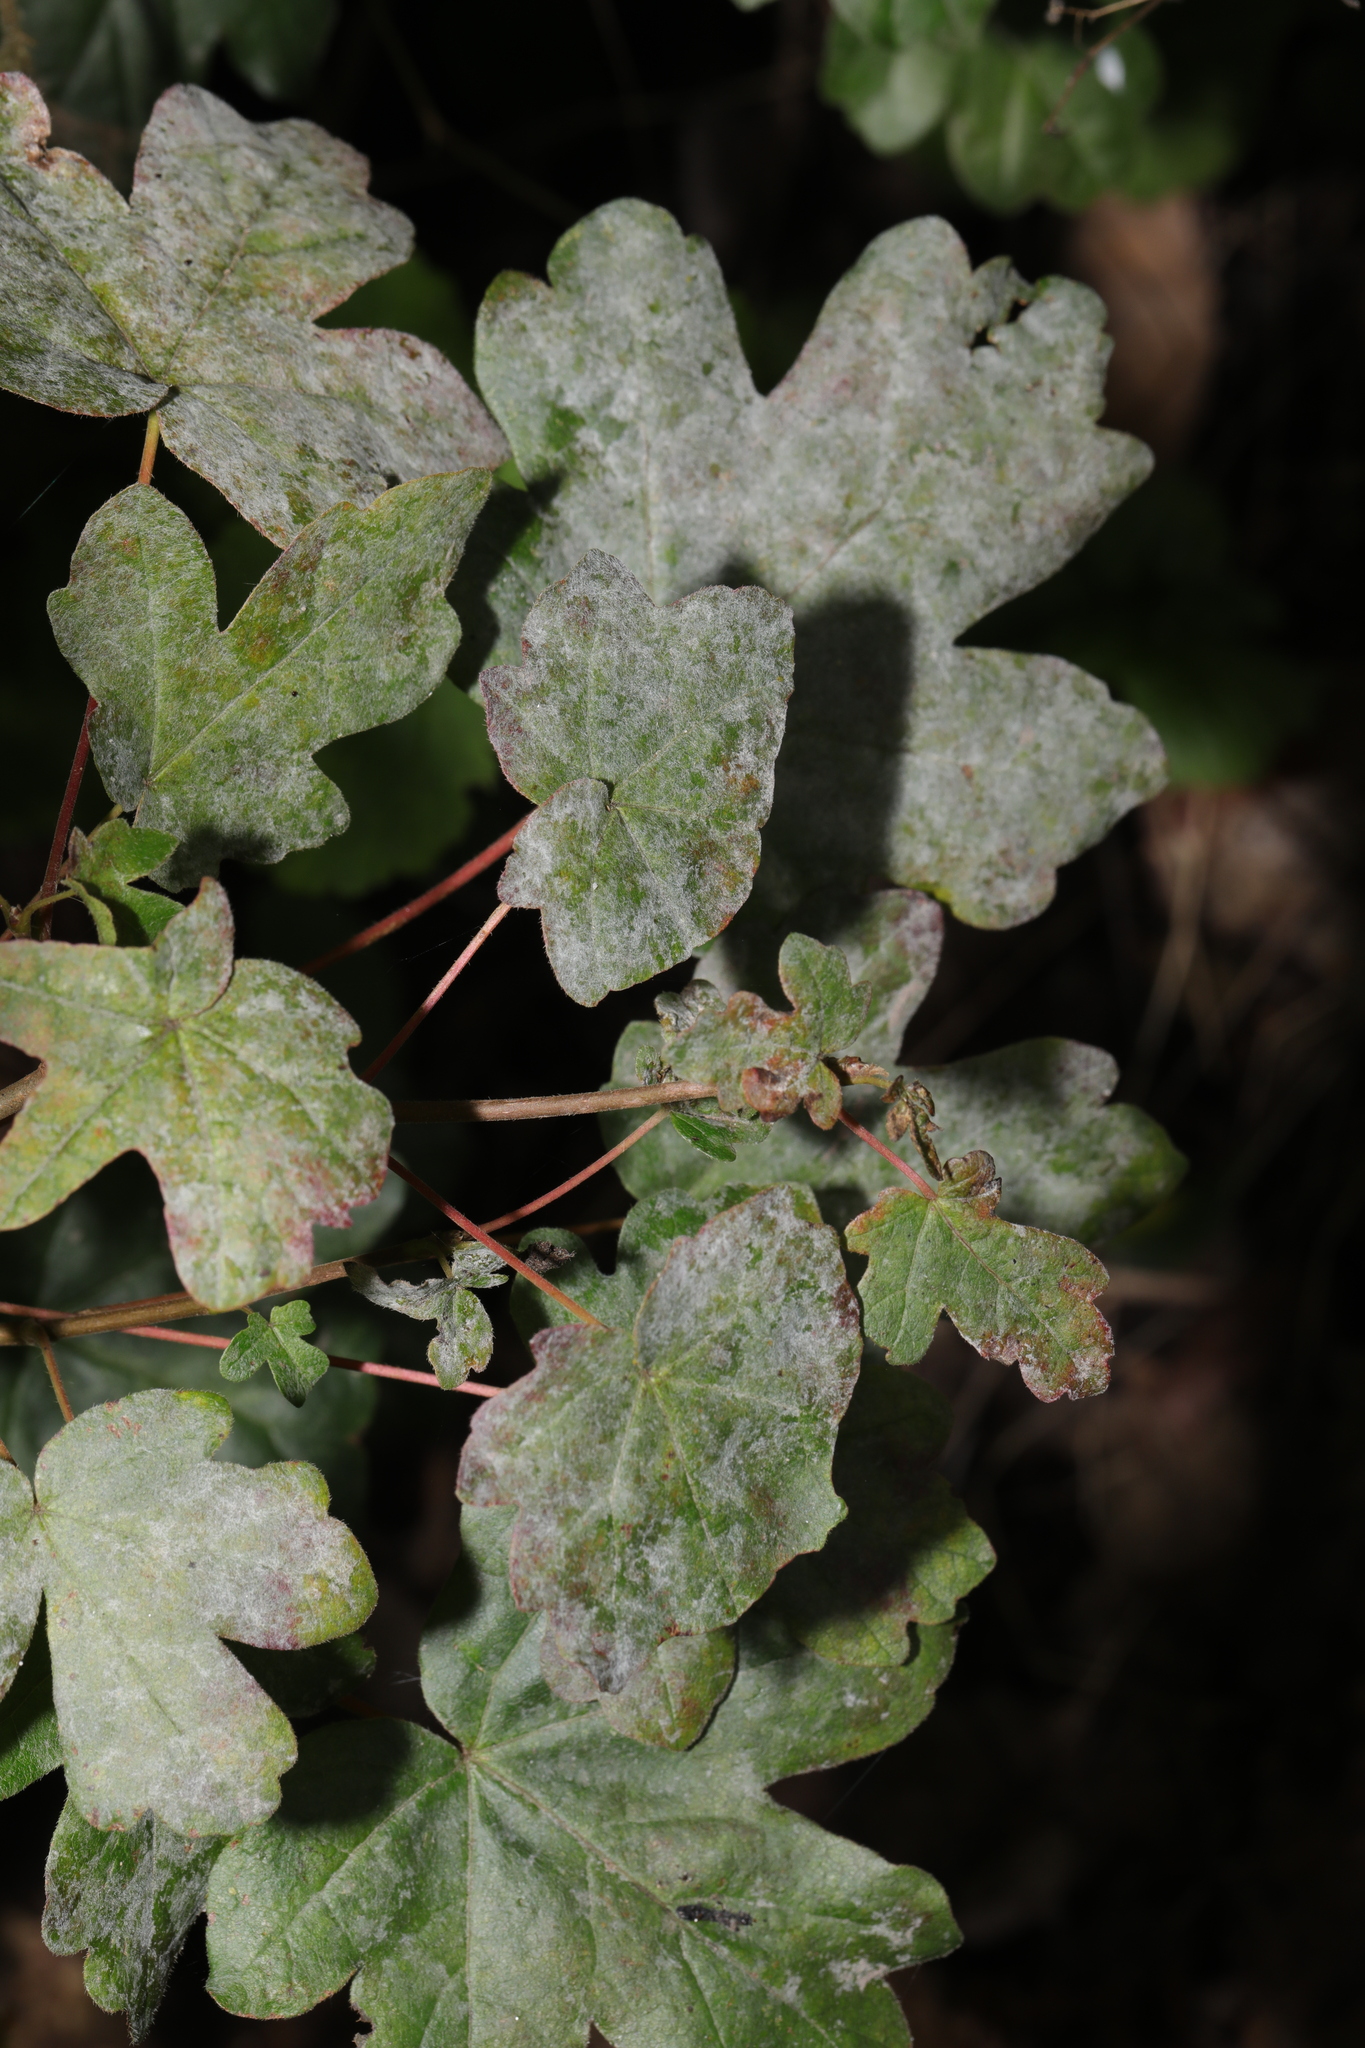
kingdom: Fungi
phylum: Ascomycota
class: Leotiomycetes
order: Helotiales
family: Erysiphaceae
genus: Sawadaea
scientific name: Sawadaea bicornis
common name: Maple mildew
